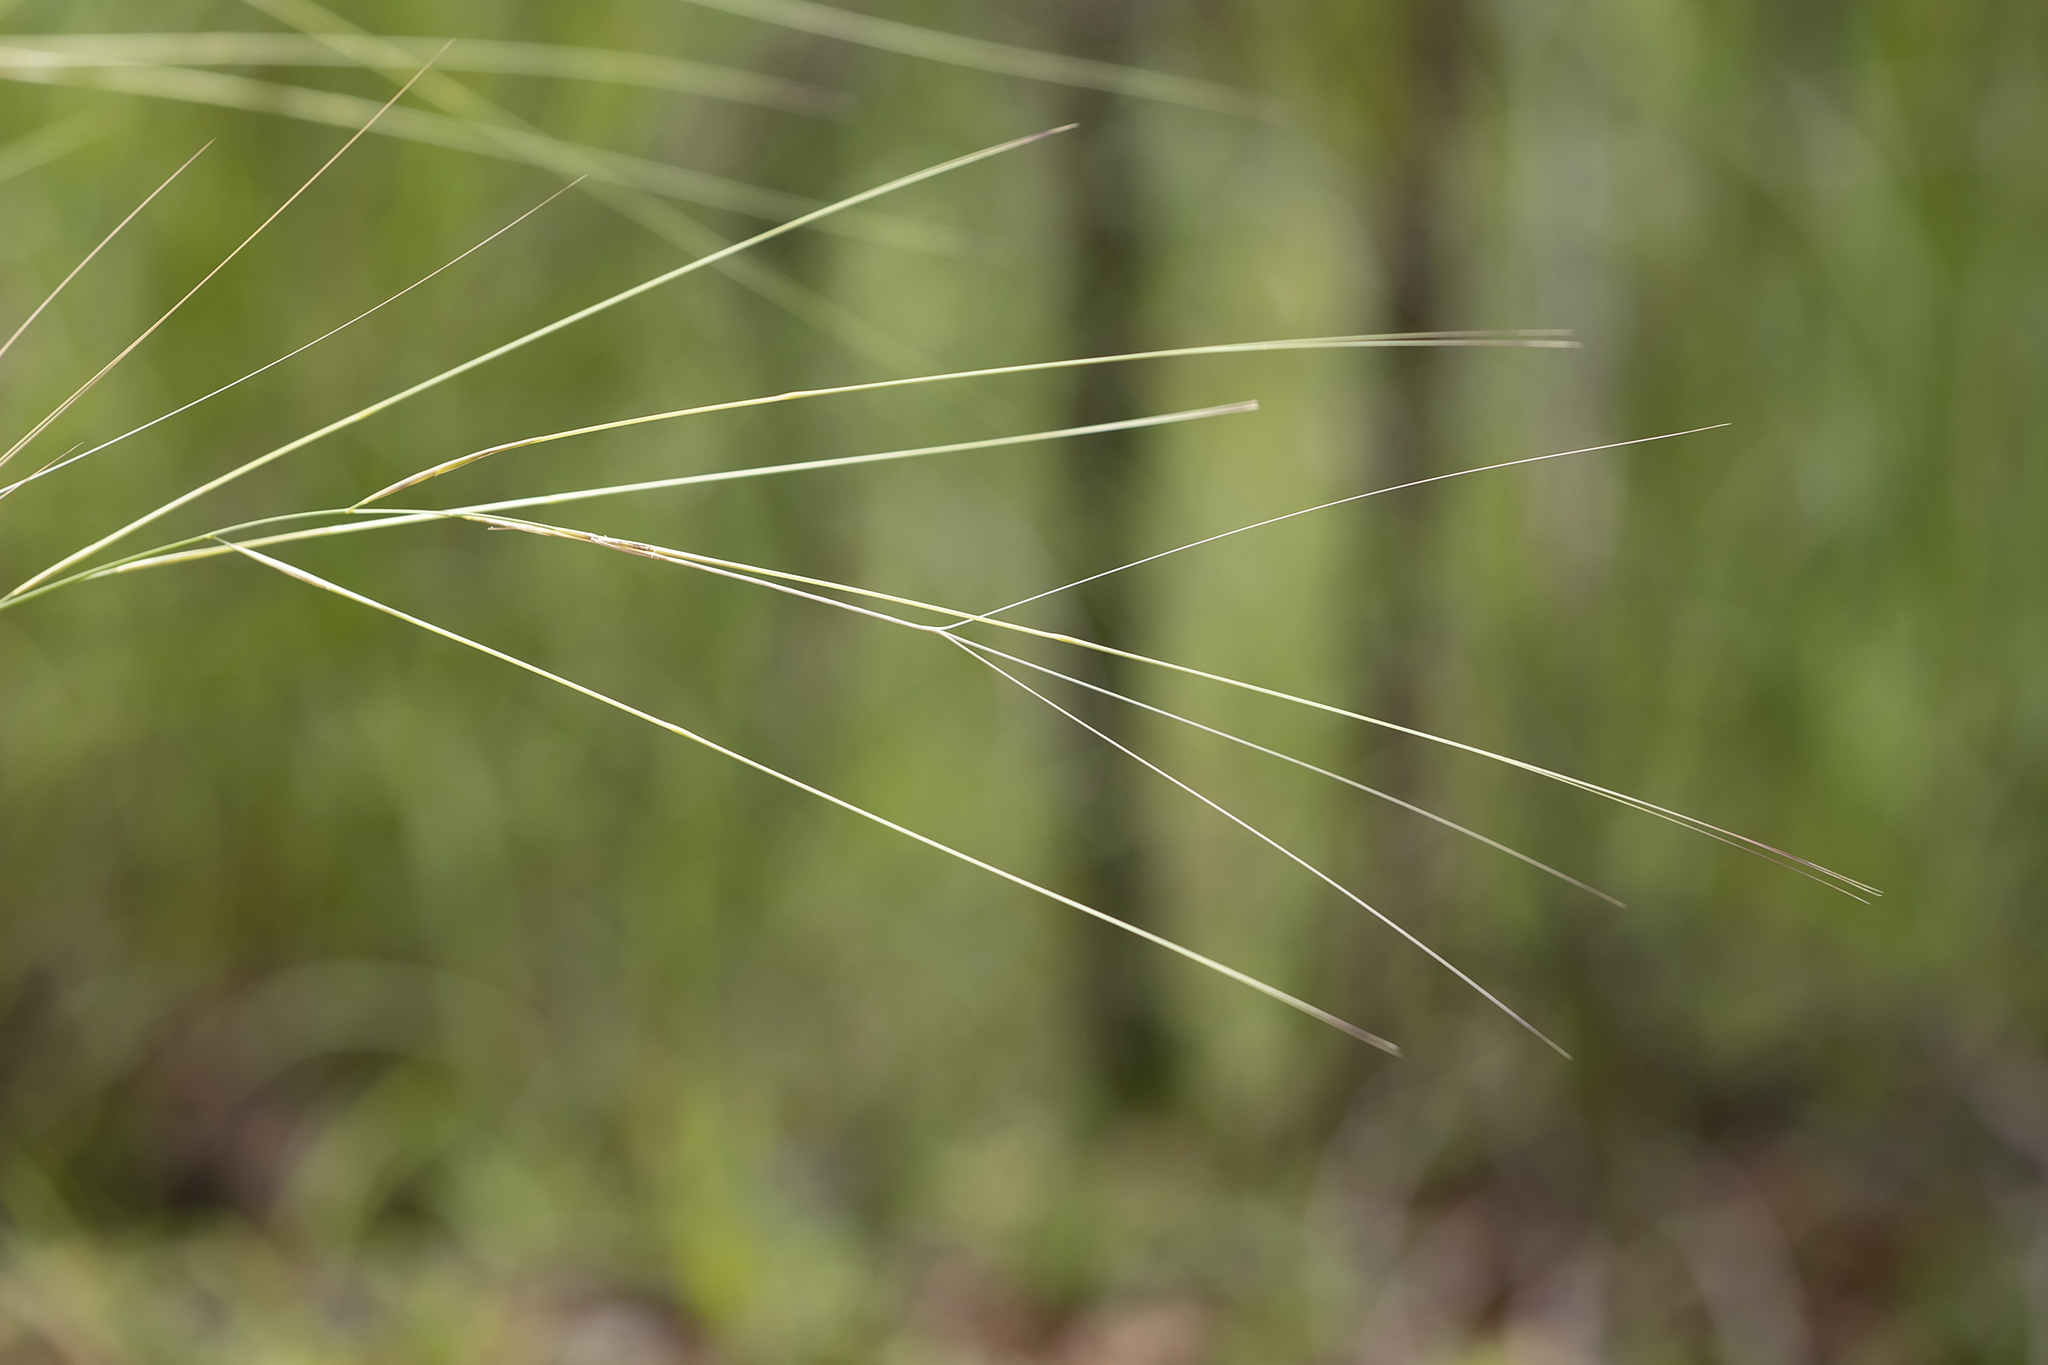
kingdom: Plantae
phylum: Tracheophyta
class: Liliopsida
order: Poales
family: Poaceae
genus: Aristida
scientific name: Aristida hygrometrica
